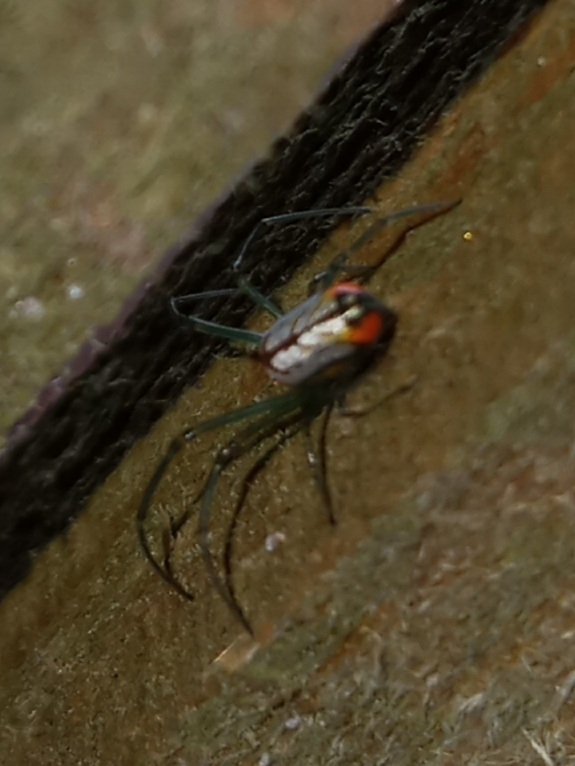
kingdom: Animalia
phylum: Arthropoda
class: Arachnida
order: Araneae
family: Tetragnathidae
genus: Leucauge
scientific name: Leucauge argyrobapta
